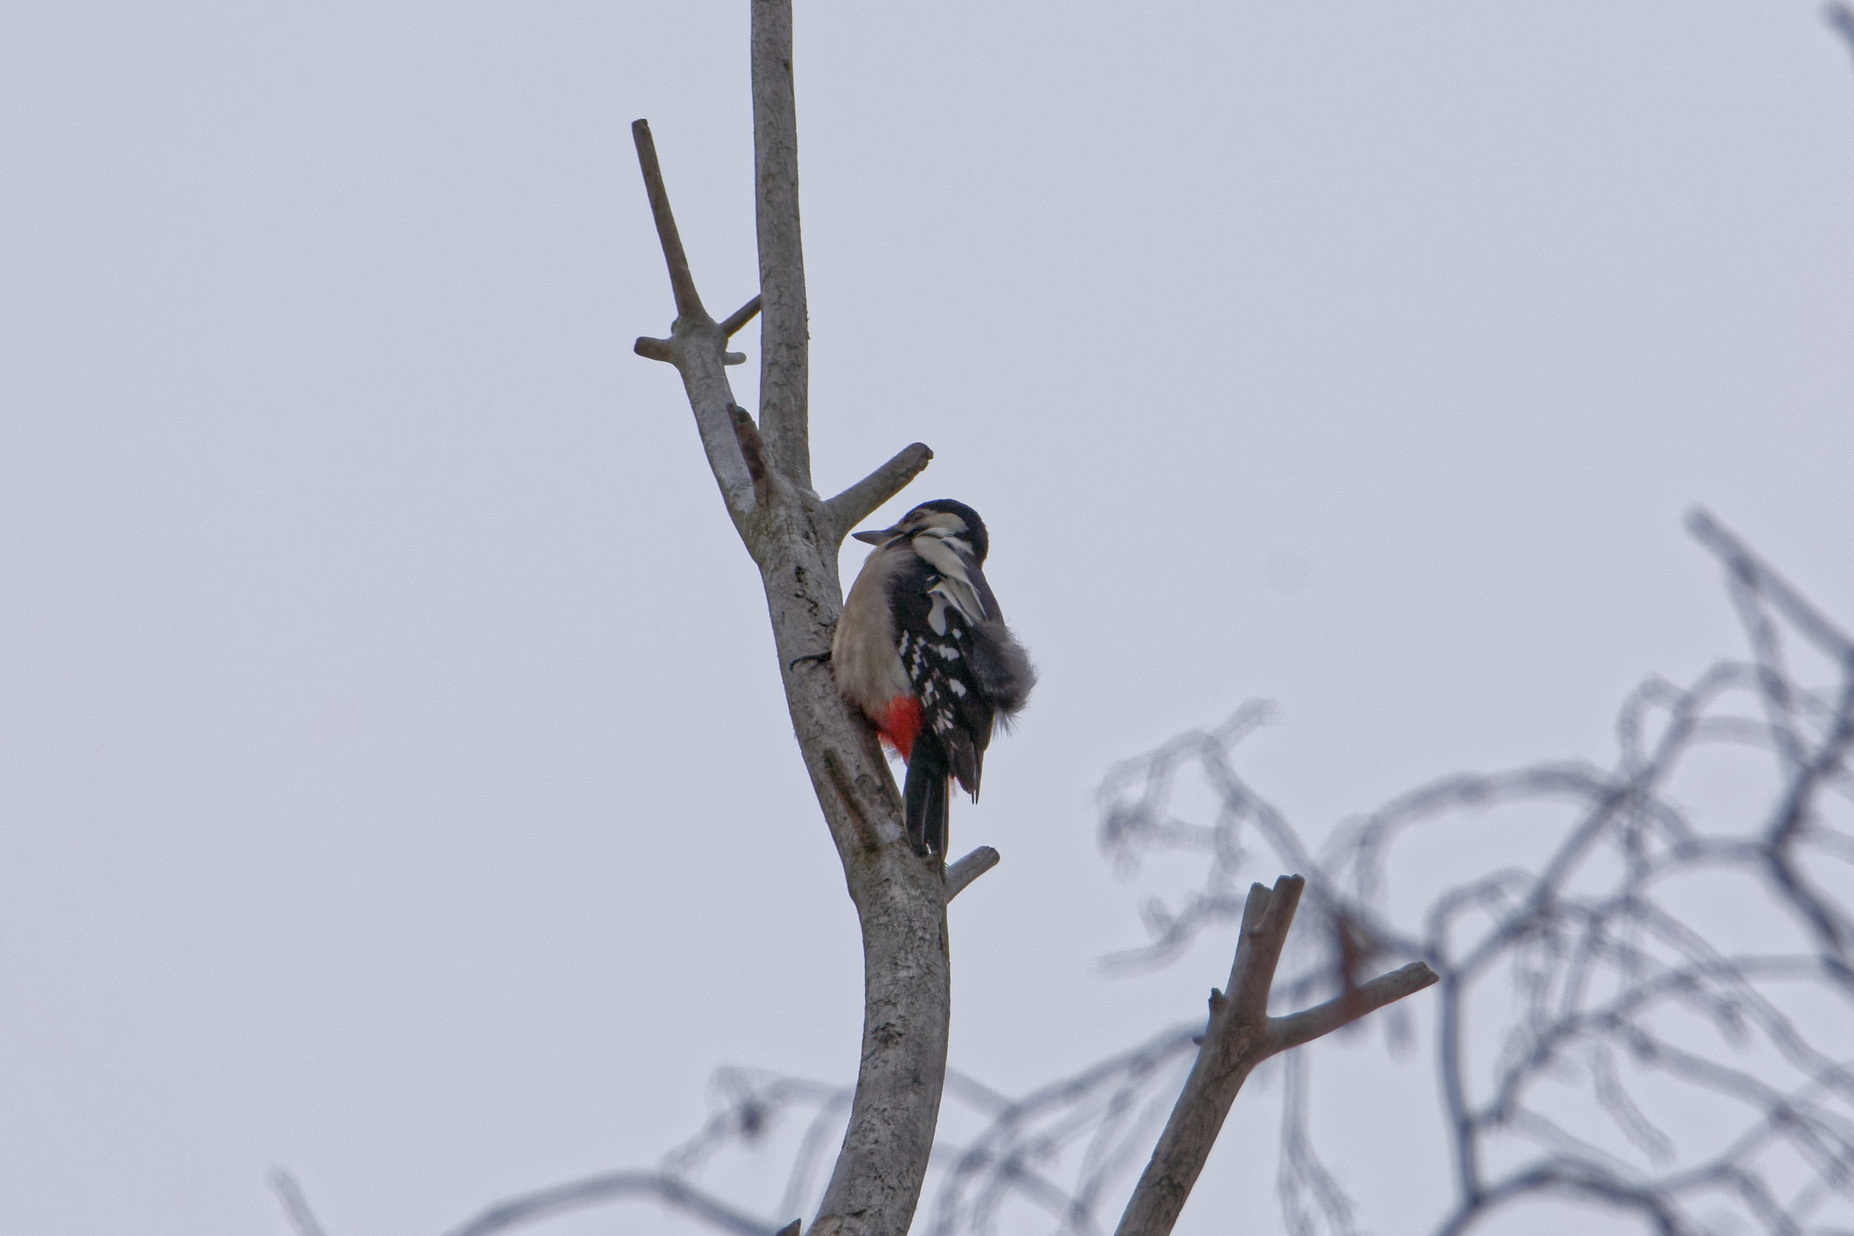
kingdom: Animalia
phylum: Chordata
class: Aves
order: Piciformes
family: Picidae
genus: Dendrocopos
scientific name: Dendrocopos major
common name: Great spotted woodpecker
